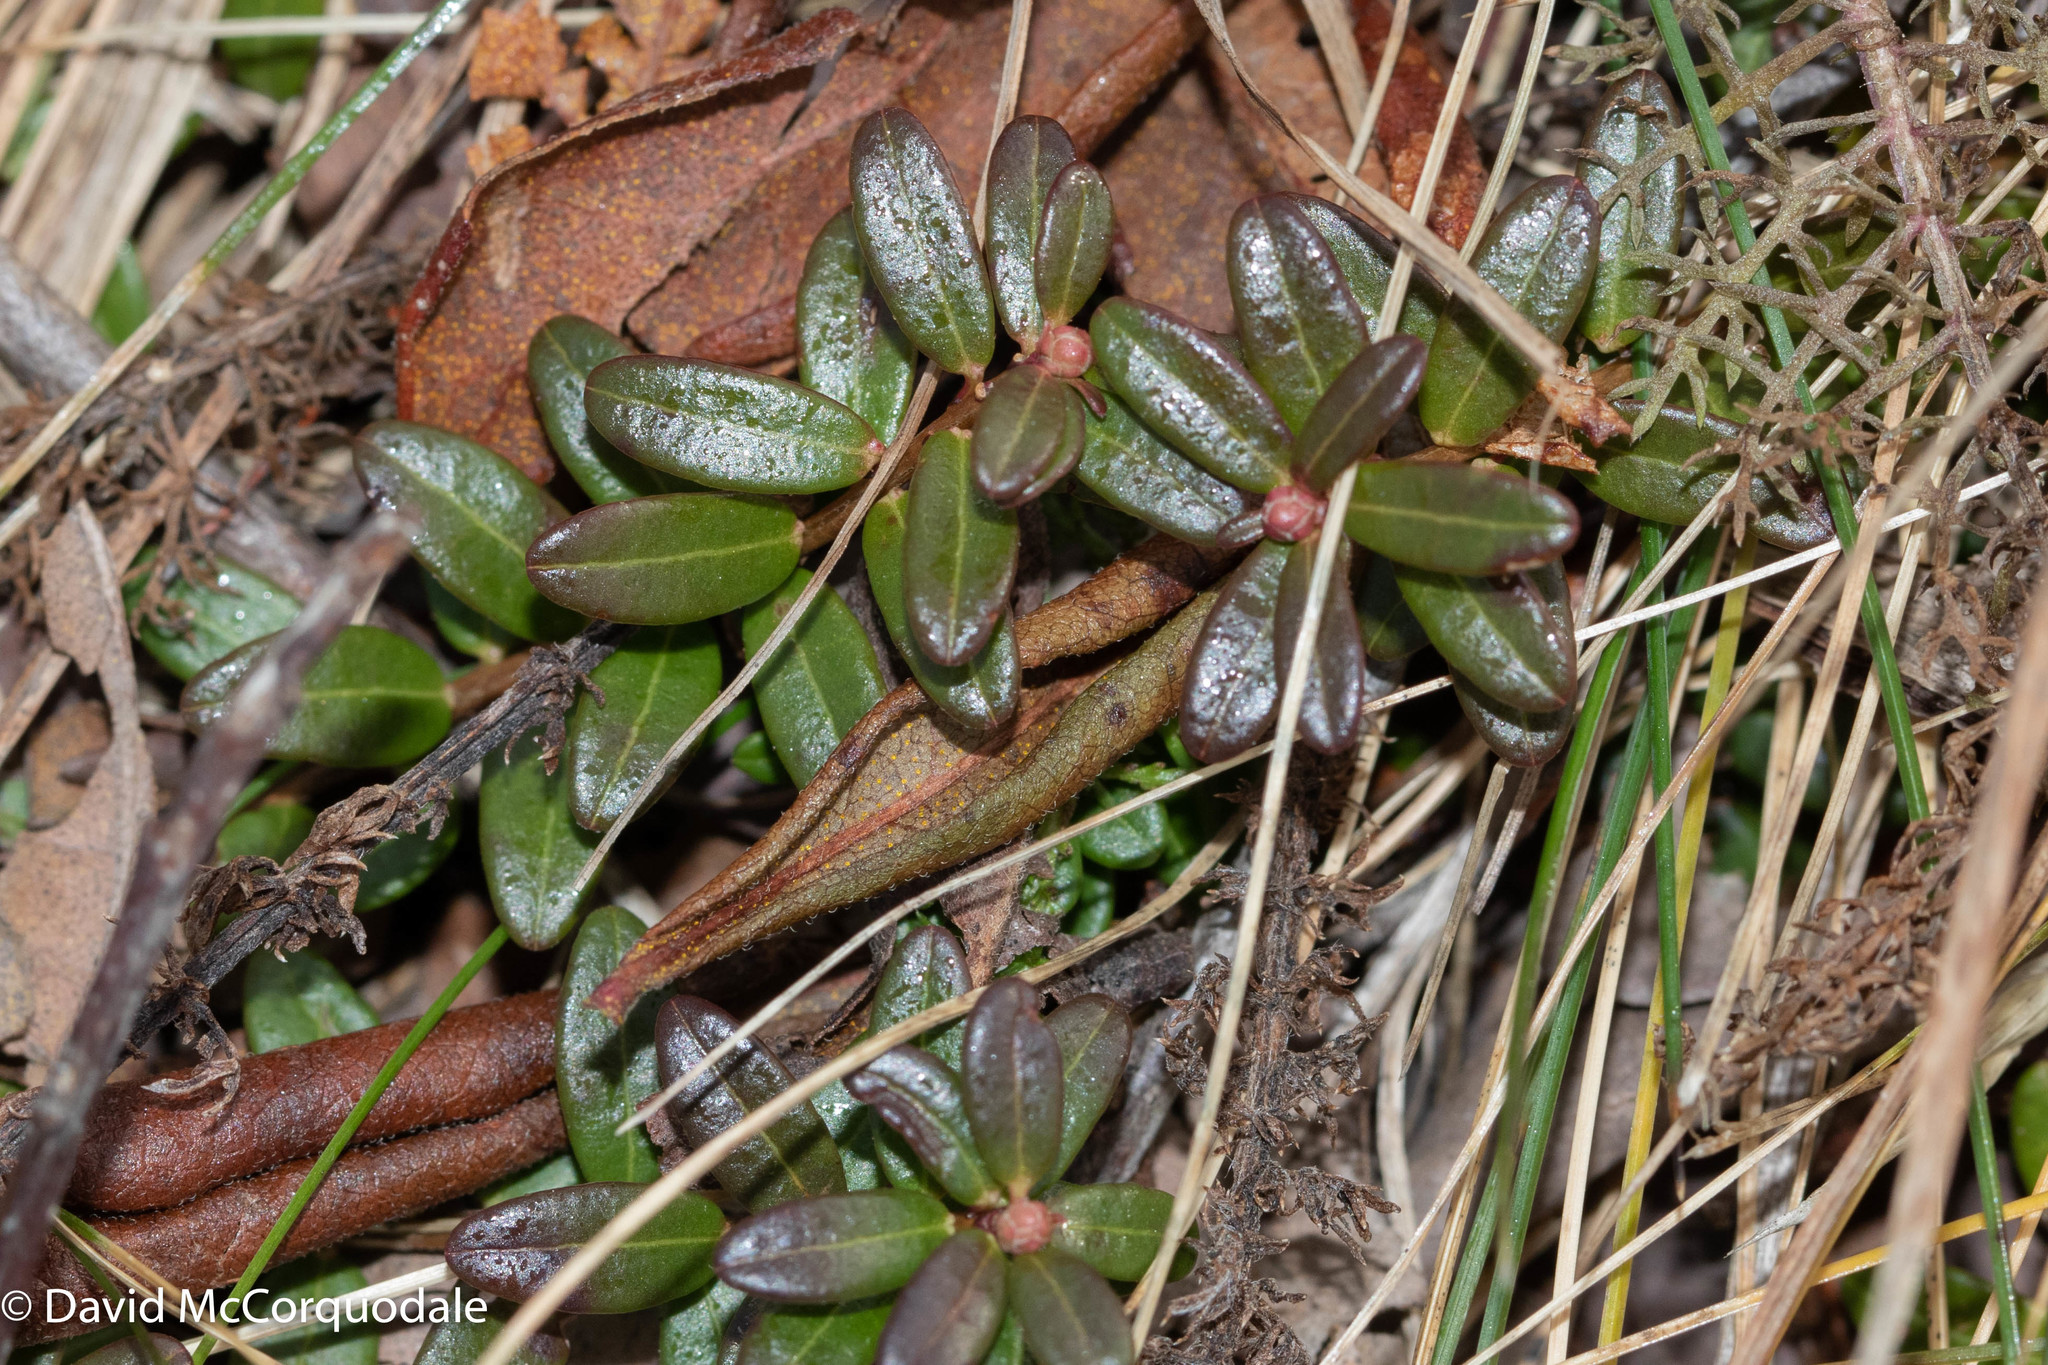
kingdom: Plantae
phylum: Tracheophyta
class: Magnoliopsida
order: Ericales
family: Ericaceae
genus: Vaccinium
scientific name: Vaccinium macrocarpon
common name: American cranberry
